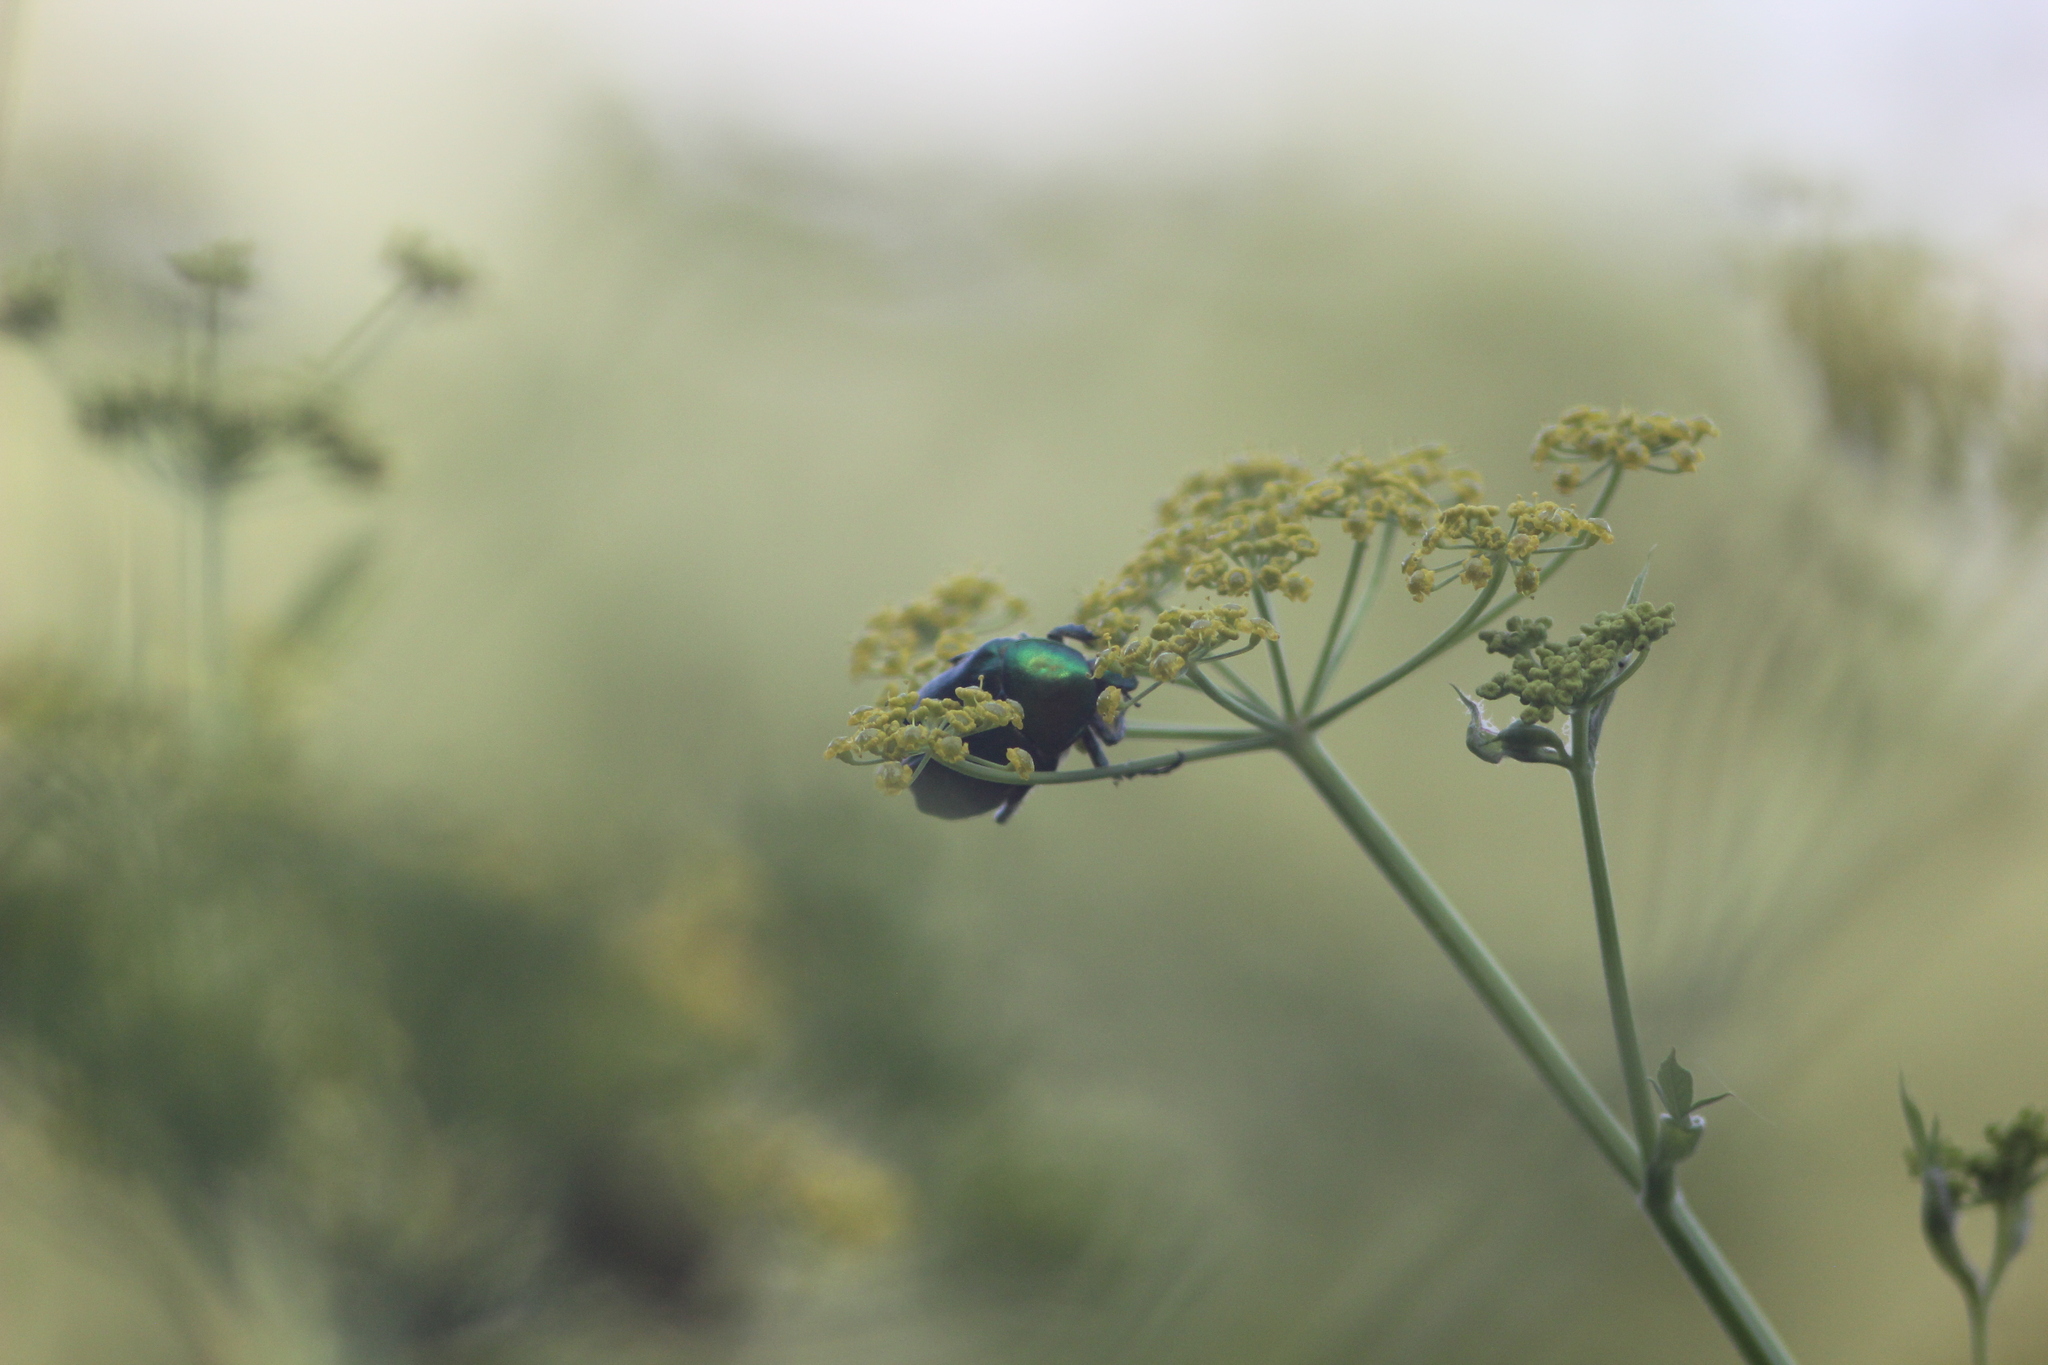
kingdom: Animalia
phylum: Arthropoda
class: Insecta
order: Coleoptera
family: Scarabaeidae
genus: Cetonia
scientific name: Cetonia aurata
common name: Rose chafer
